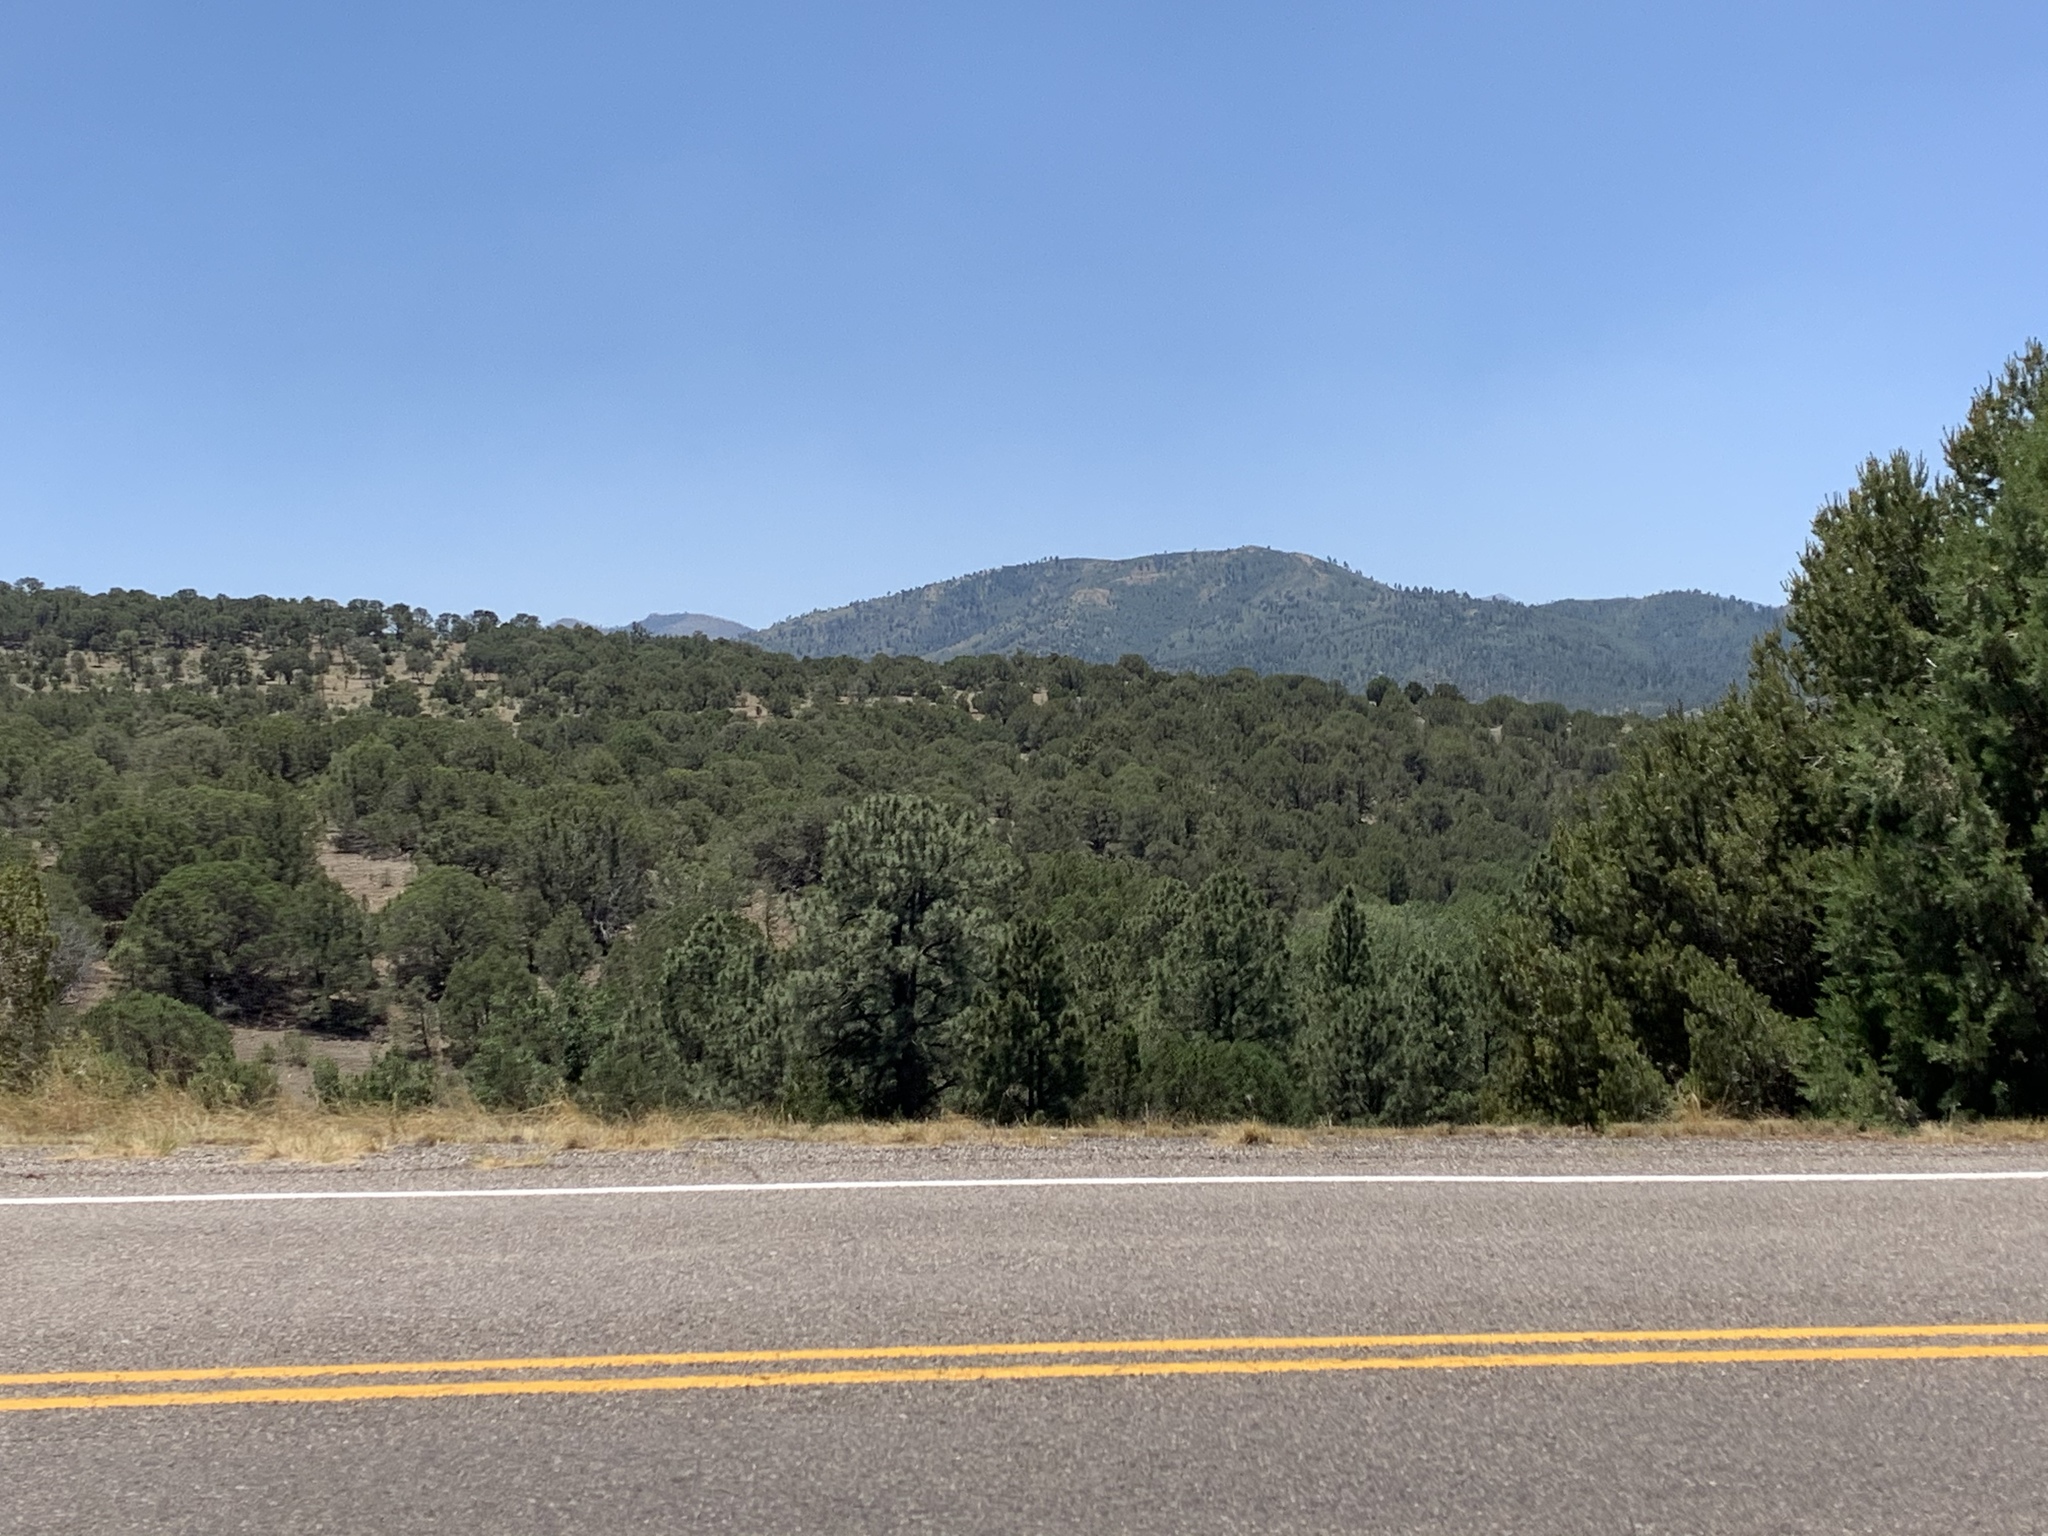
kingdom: Plantae
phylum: Tracheophyta
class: Pinopsida
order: Pinales
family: Pinaceae
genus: Pinus
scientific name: Pinus ponderosa
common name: Western yellow-pine
